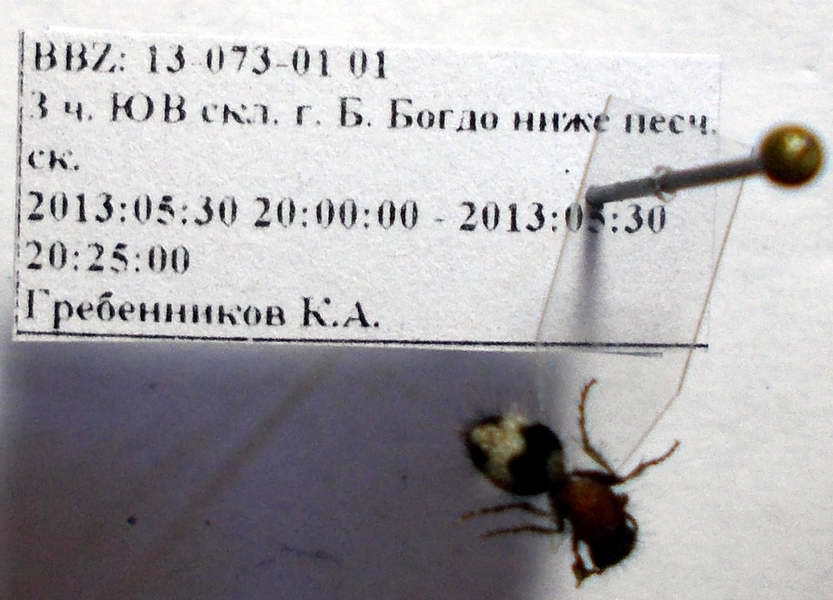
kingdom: Animalia
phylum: Arthropoda
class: Insecta
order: Hymenoptera
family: Mutillidae
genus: Dasylabris
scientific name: Dasylabris regalis
